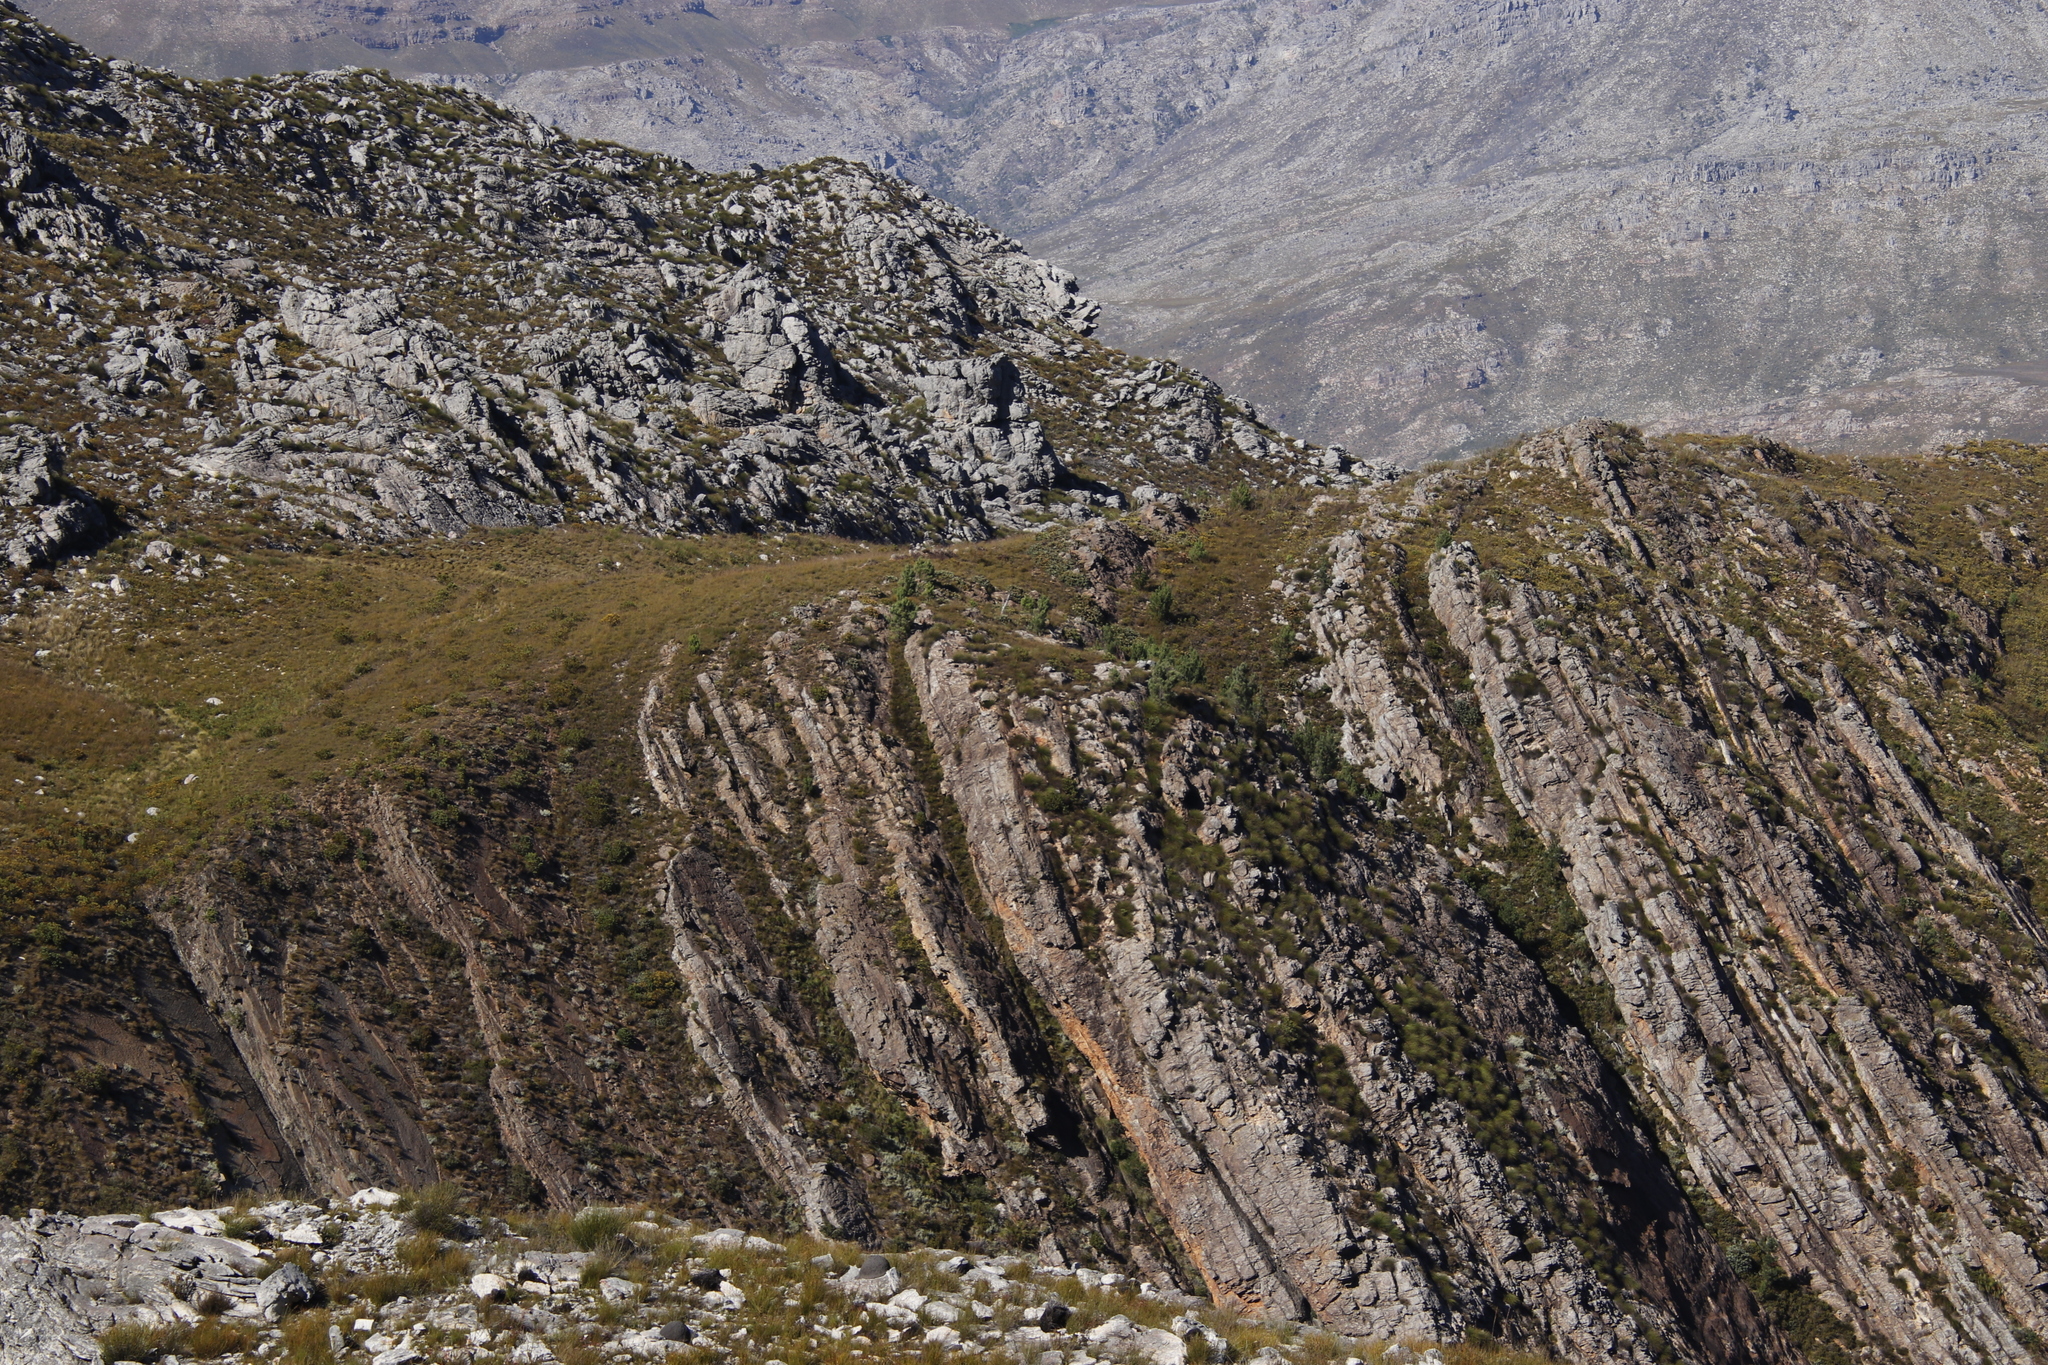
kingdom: Plantae
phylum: Tracheophyta
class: Pinopsida
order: Pinales
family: Pinaceae
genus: Pinus
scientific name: Pinus pinaster
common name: Maritime pine
